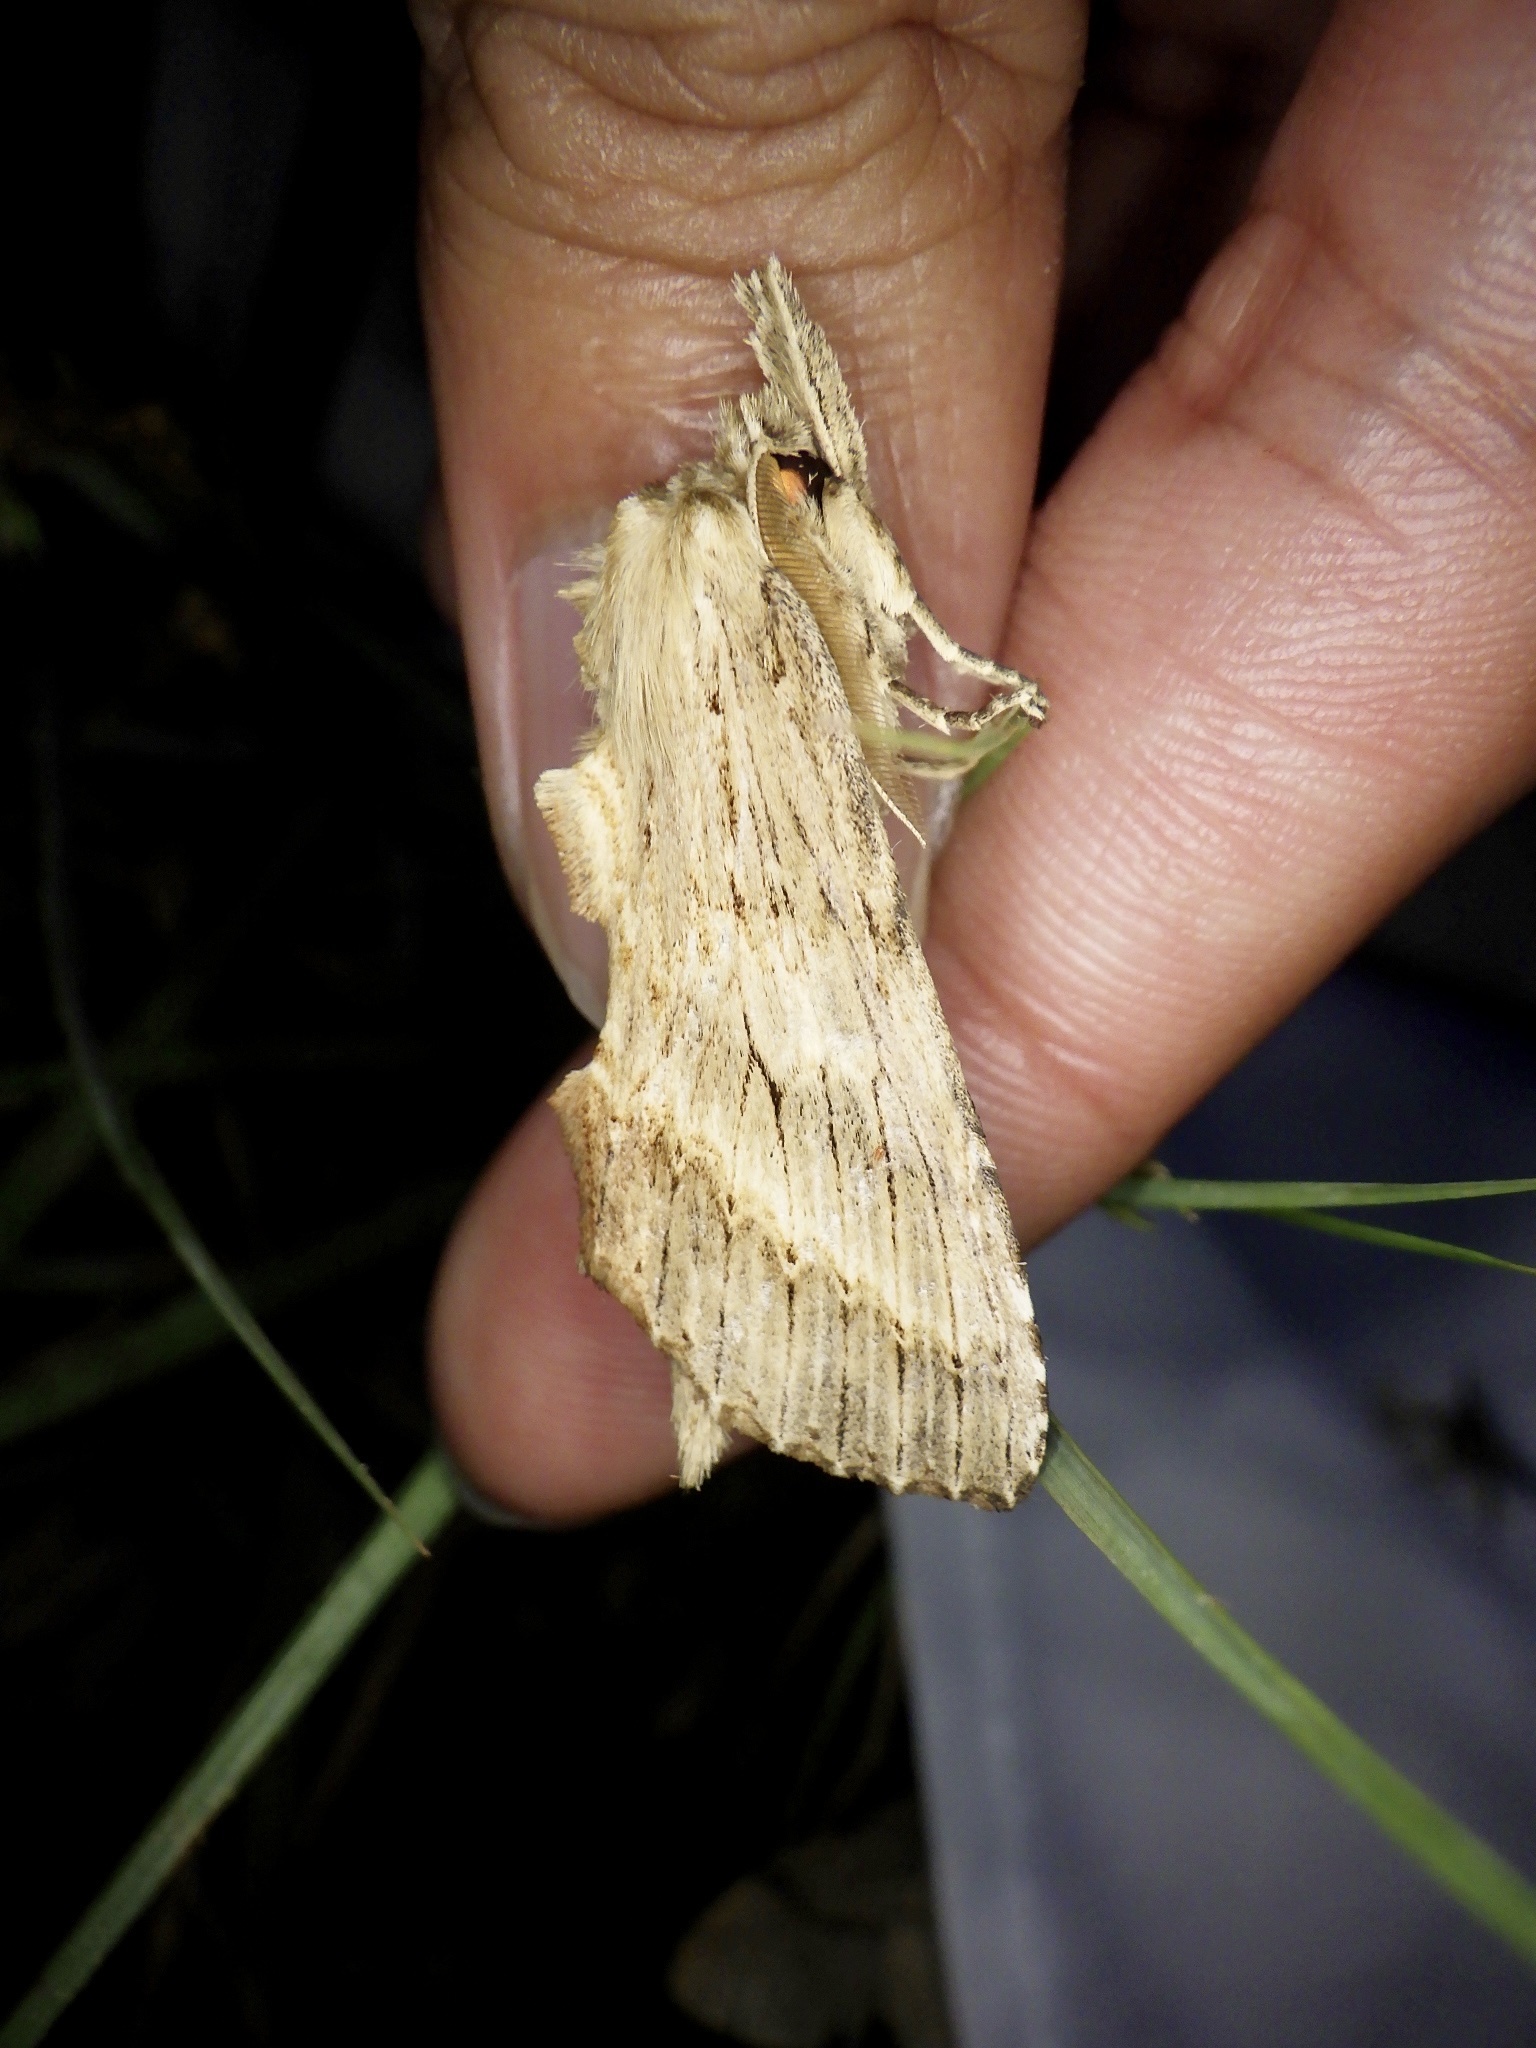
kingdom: Animalia
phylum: Arthropoda
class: Insecta
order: Lepidoptera
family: Notodontidae
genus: Pterostoma
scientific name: Pterostoma gigantina
